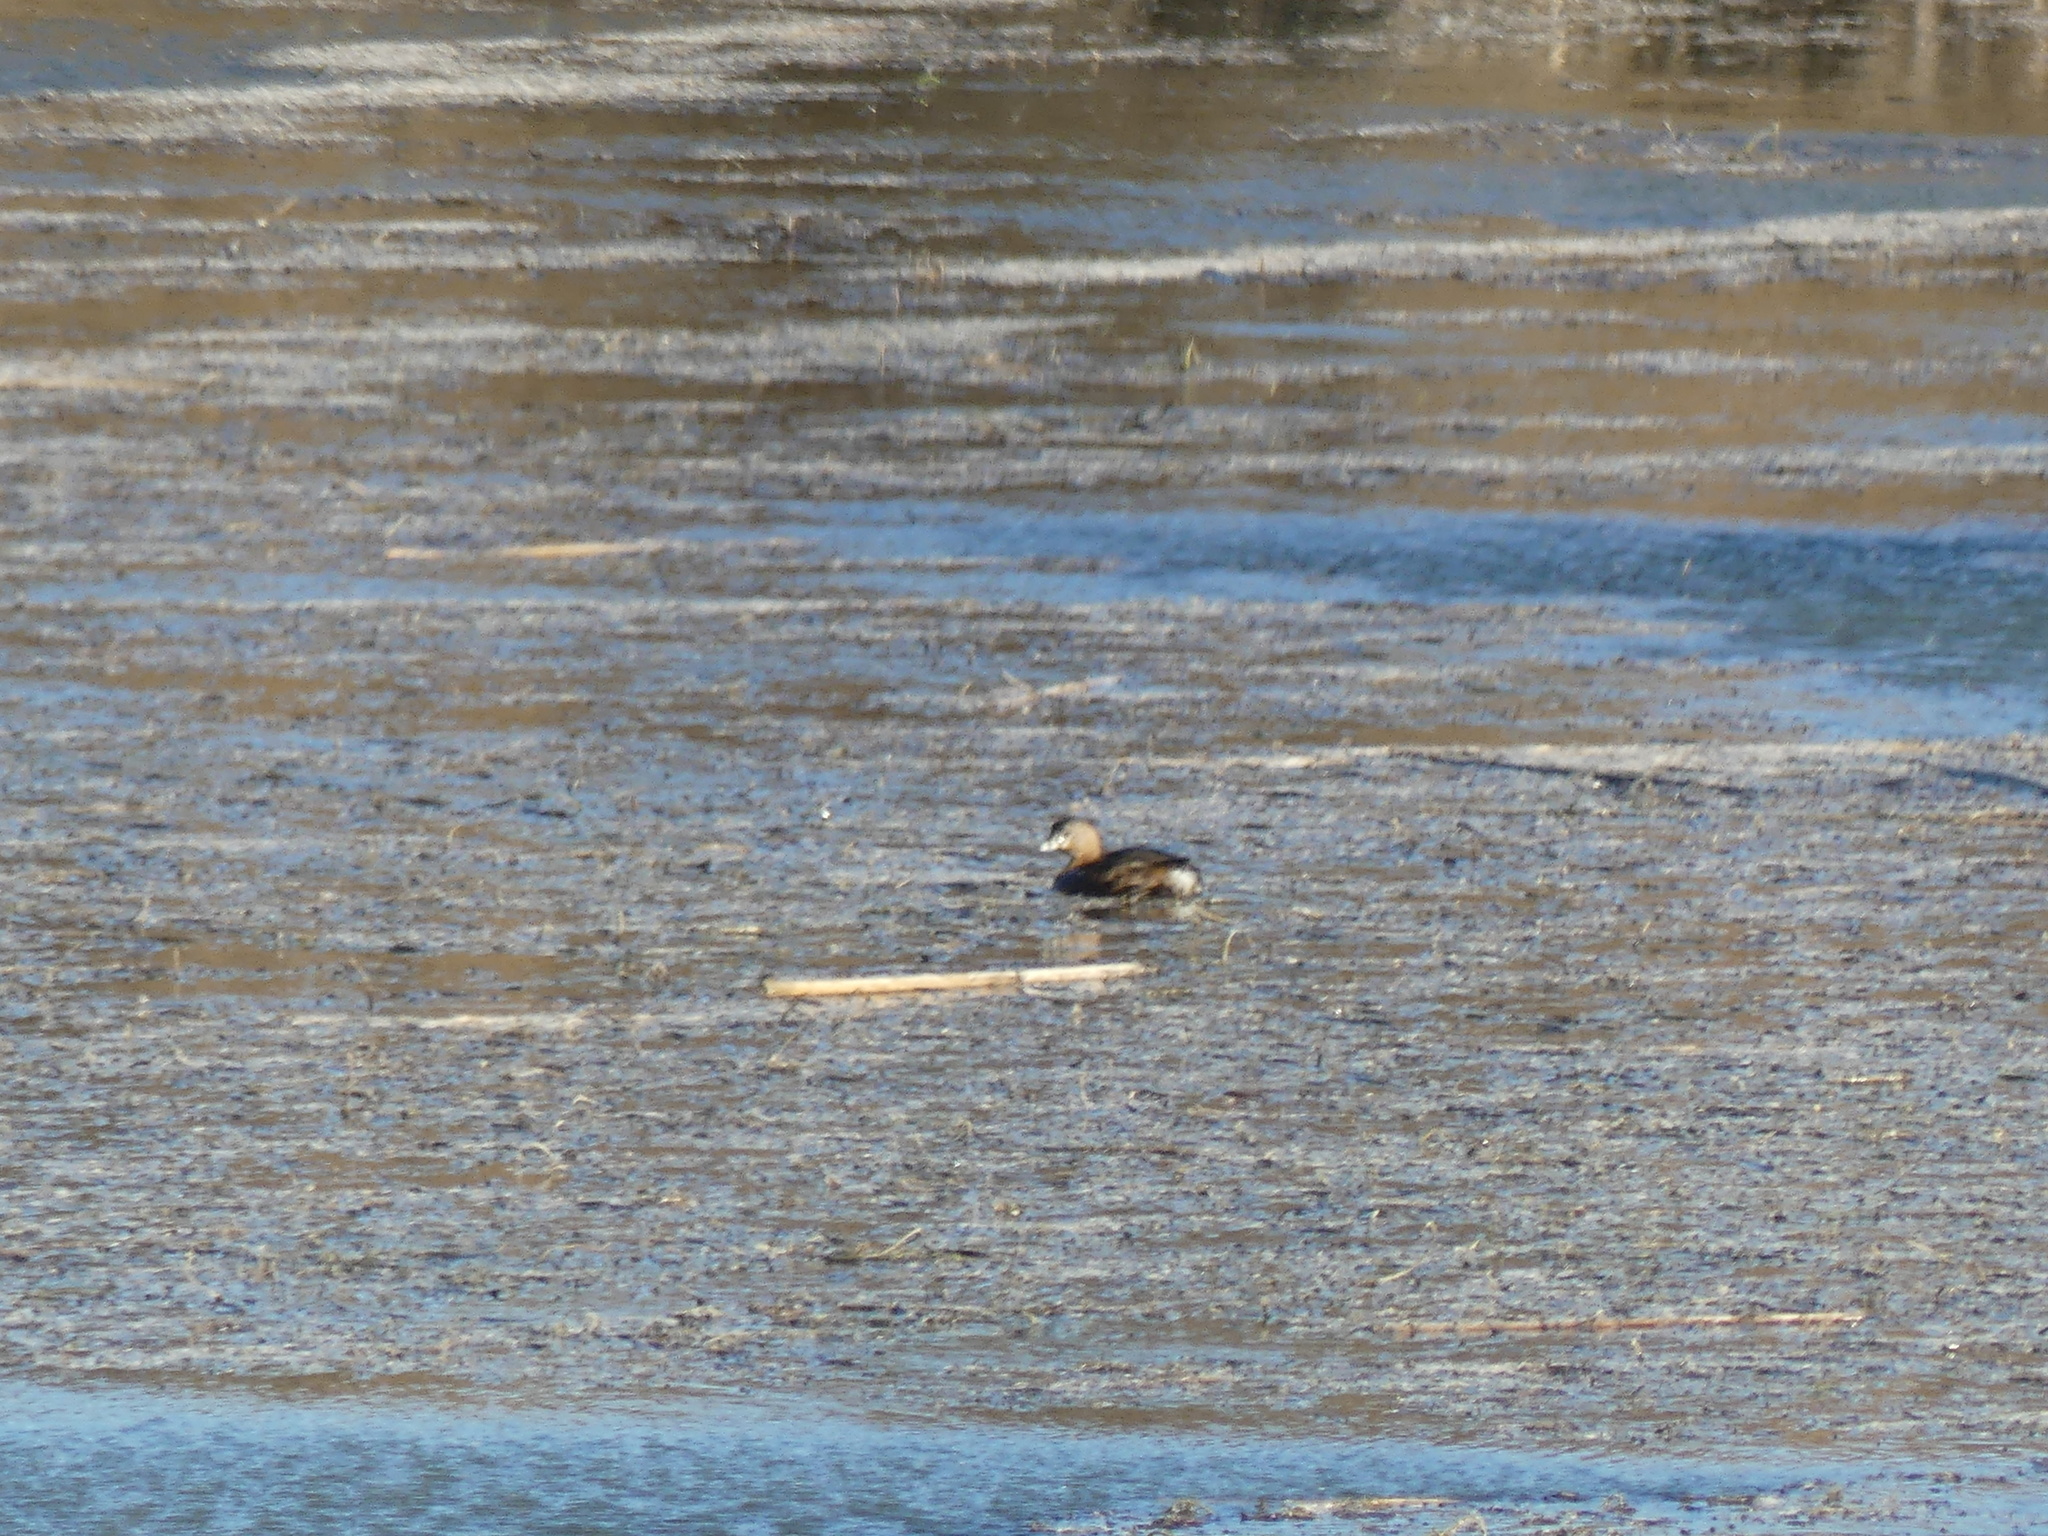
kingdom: Animalia
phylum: Chordata
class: Aves
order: Podicipediformes
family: Podicipedidae
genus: Podilymbus
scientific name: Podilymbus podiceps
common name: Pied-billed grebe
